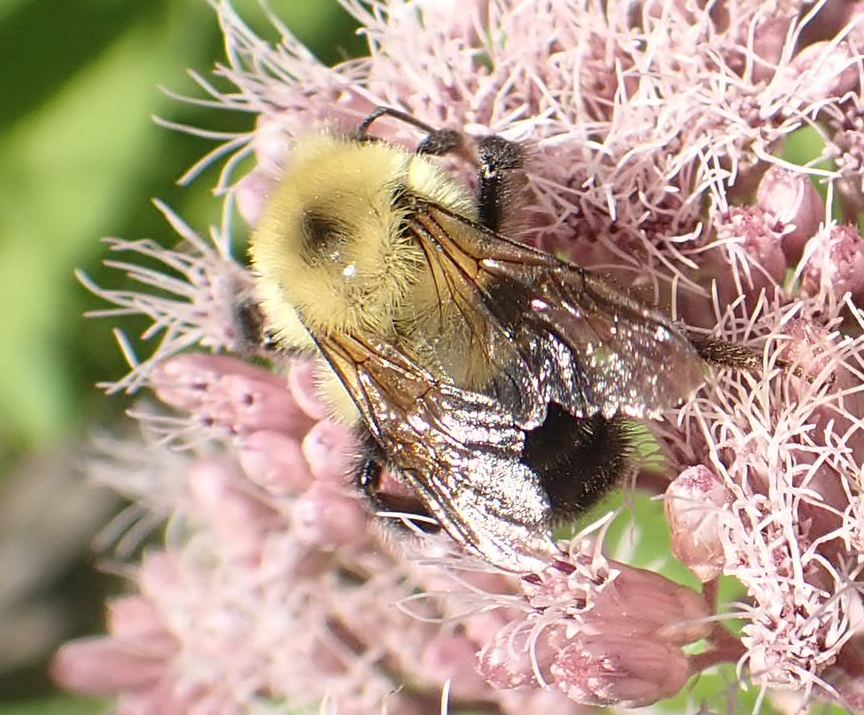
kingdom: Animalia
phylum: Arthropoda
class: Insecta
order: Hymenoptera
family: Apidae
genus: Bombus
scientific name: Bombus bimaculatus
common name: Two-spotted bumble bee
